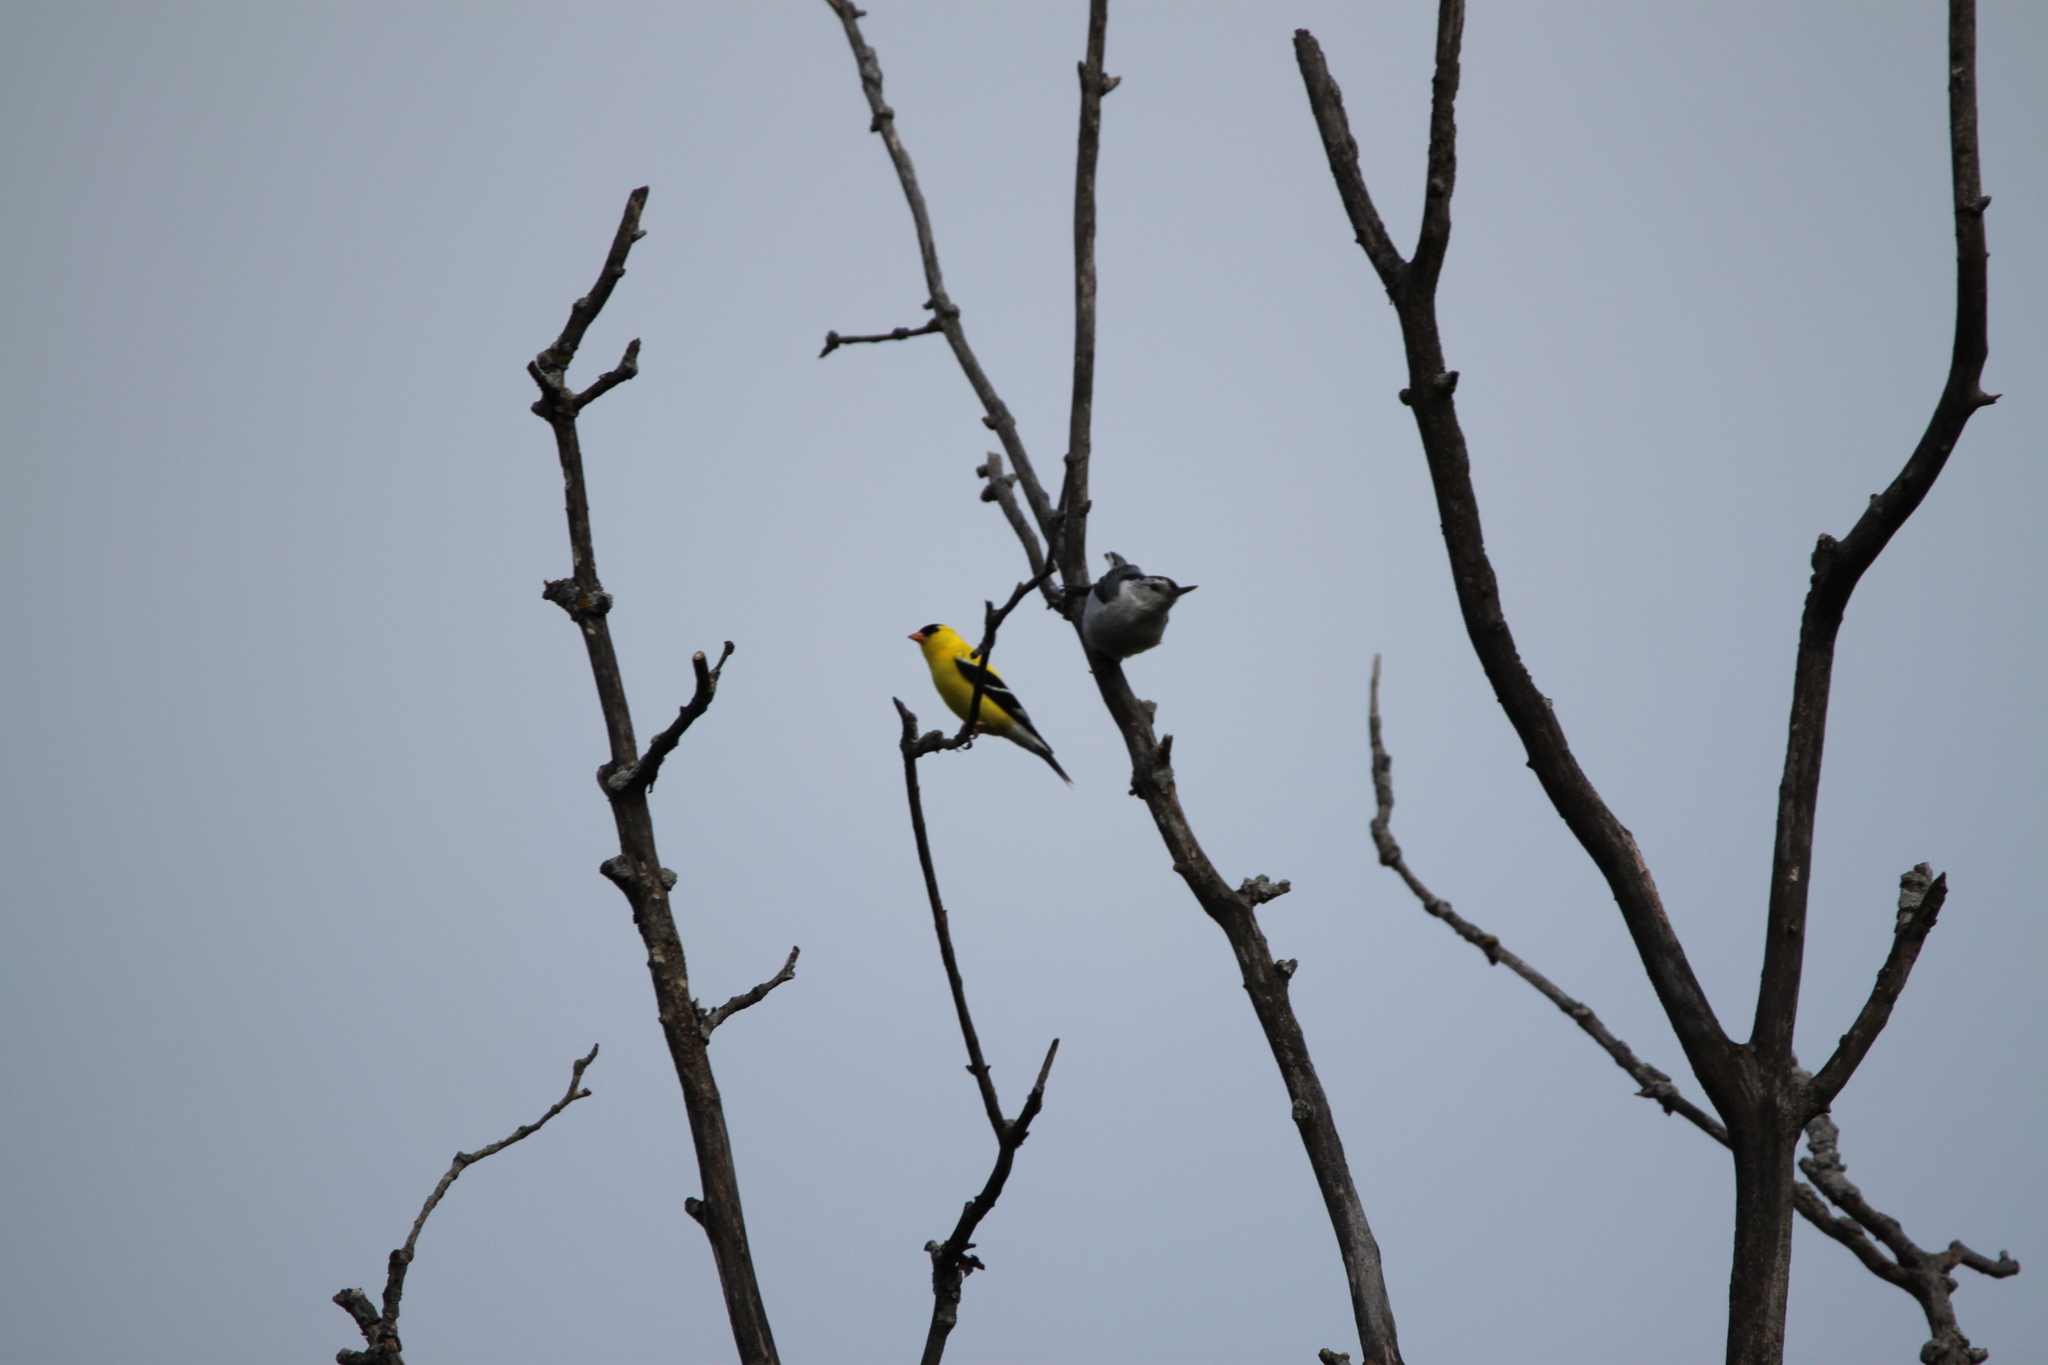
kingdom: Animalia
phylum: Chordata
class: Aves
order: Passeriformes
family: Fringillidae
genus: Spinus
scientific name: Spinus tristis
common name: American goldfinch
